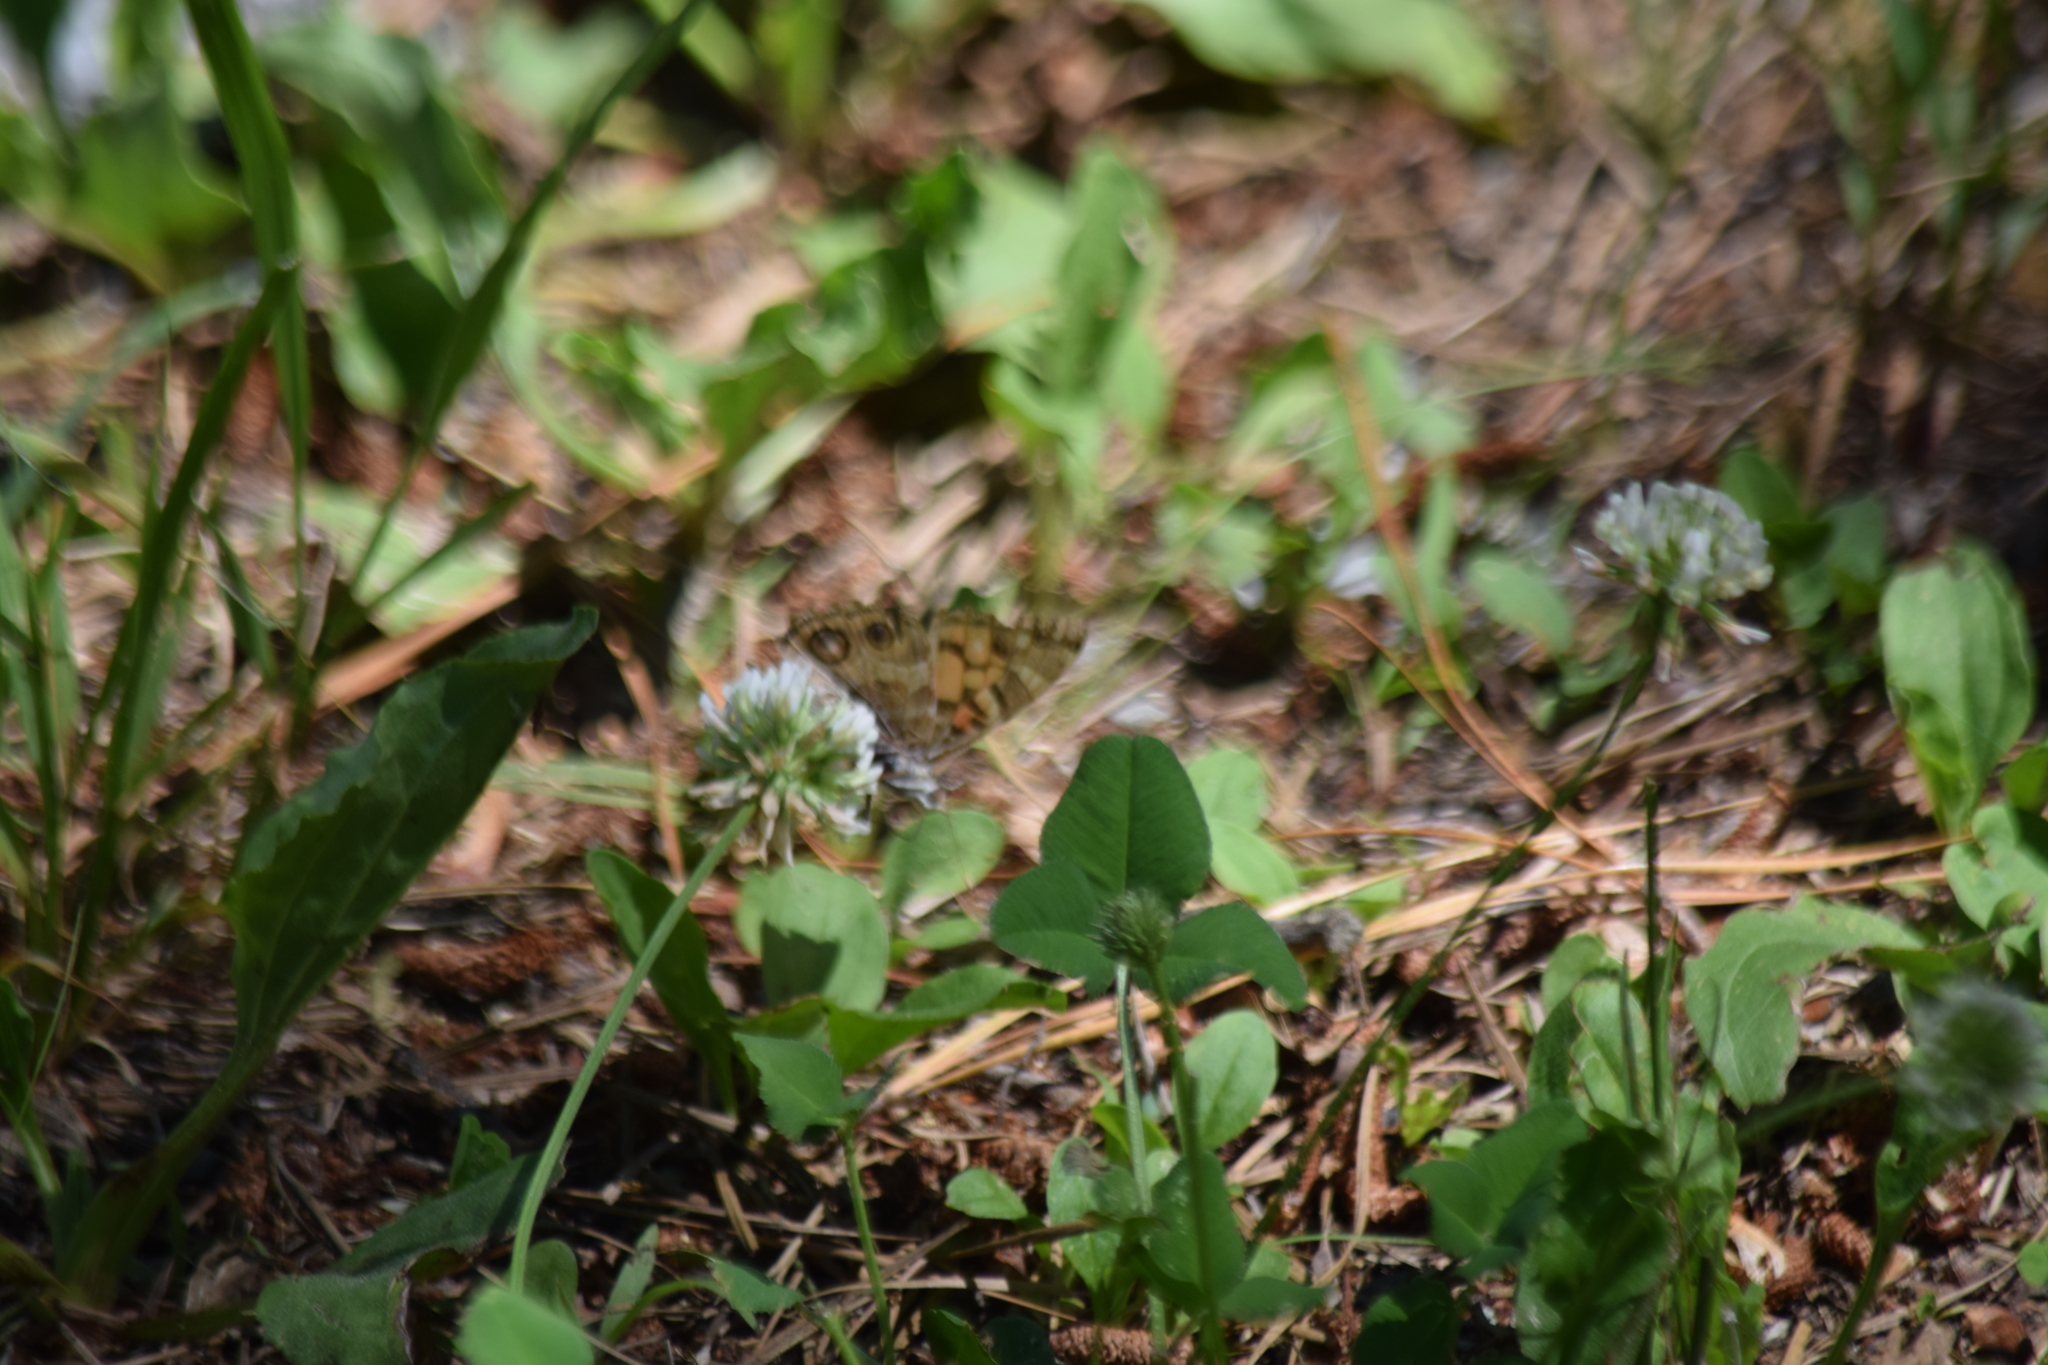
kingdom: Animalia
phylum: Arthropoda
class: Insecta
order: Lepidoptera
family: Nymphalidae
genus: Vanessa
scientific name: Vanessa virginiensis
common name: American lady
